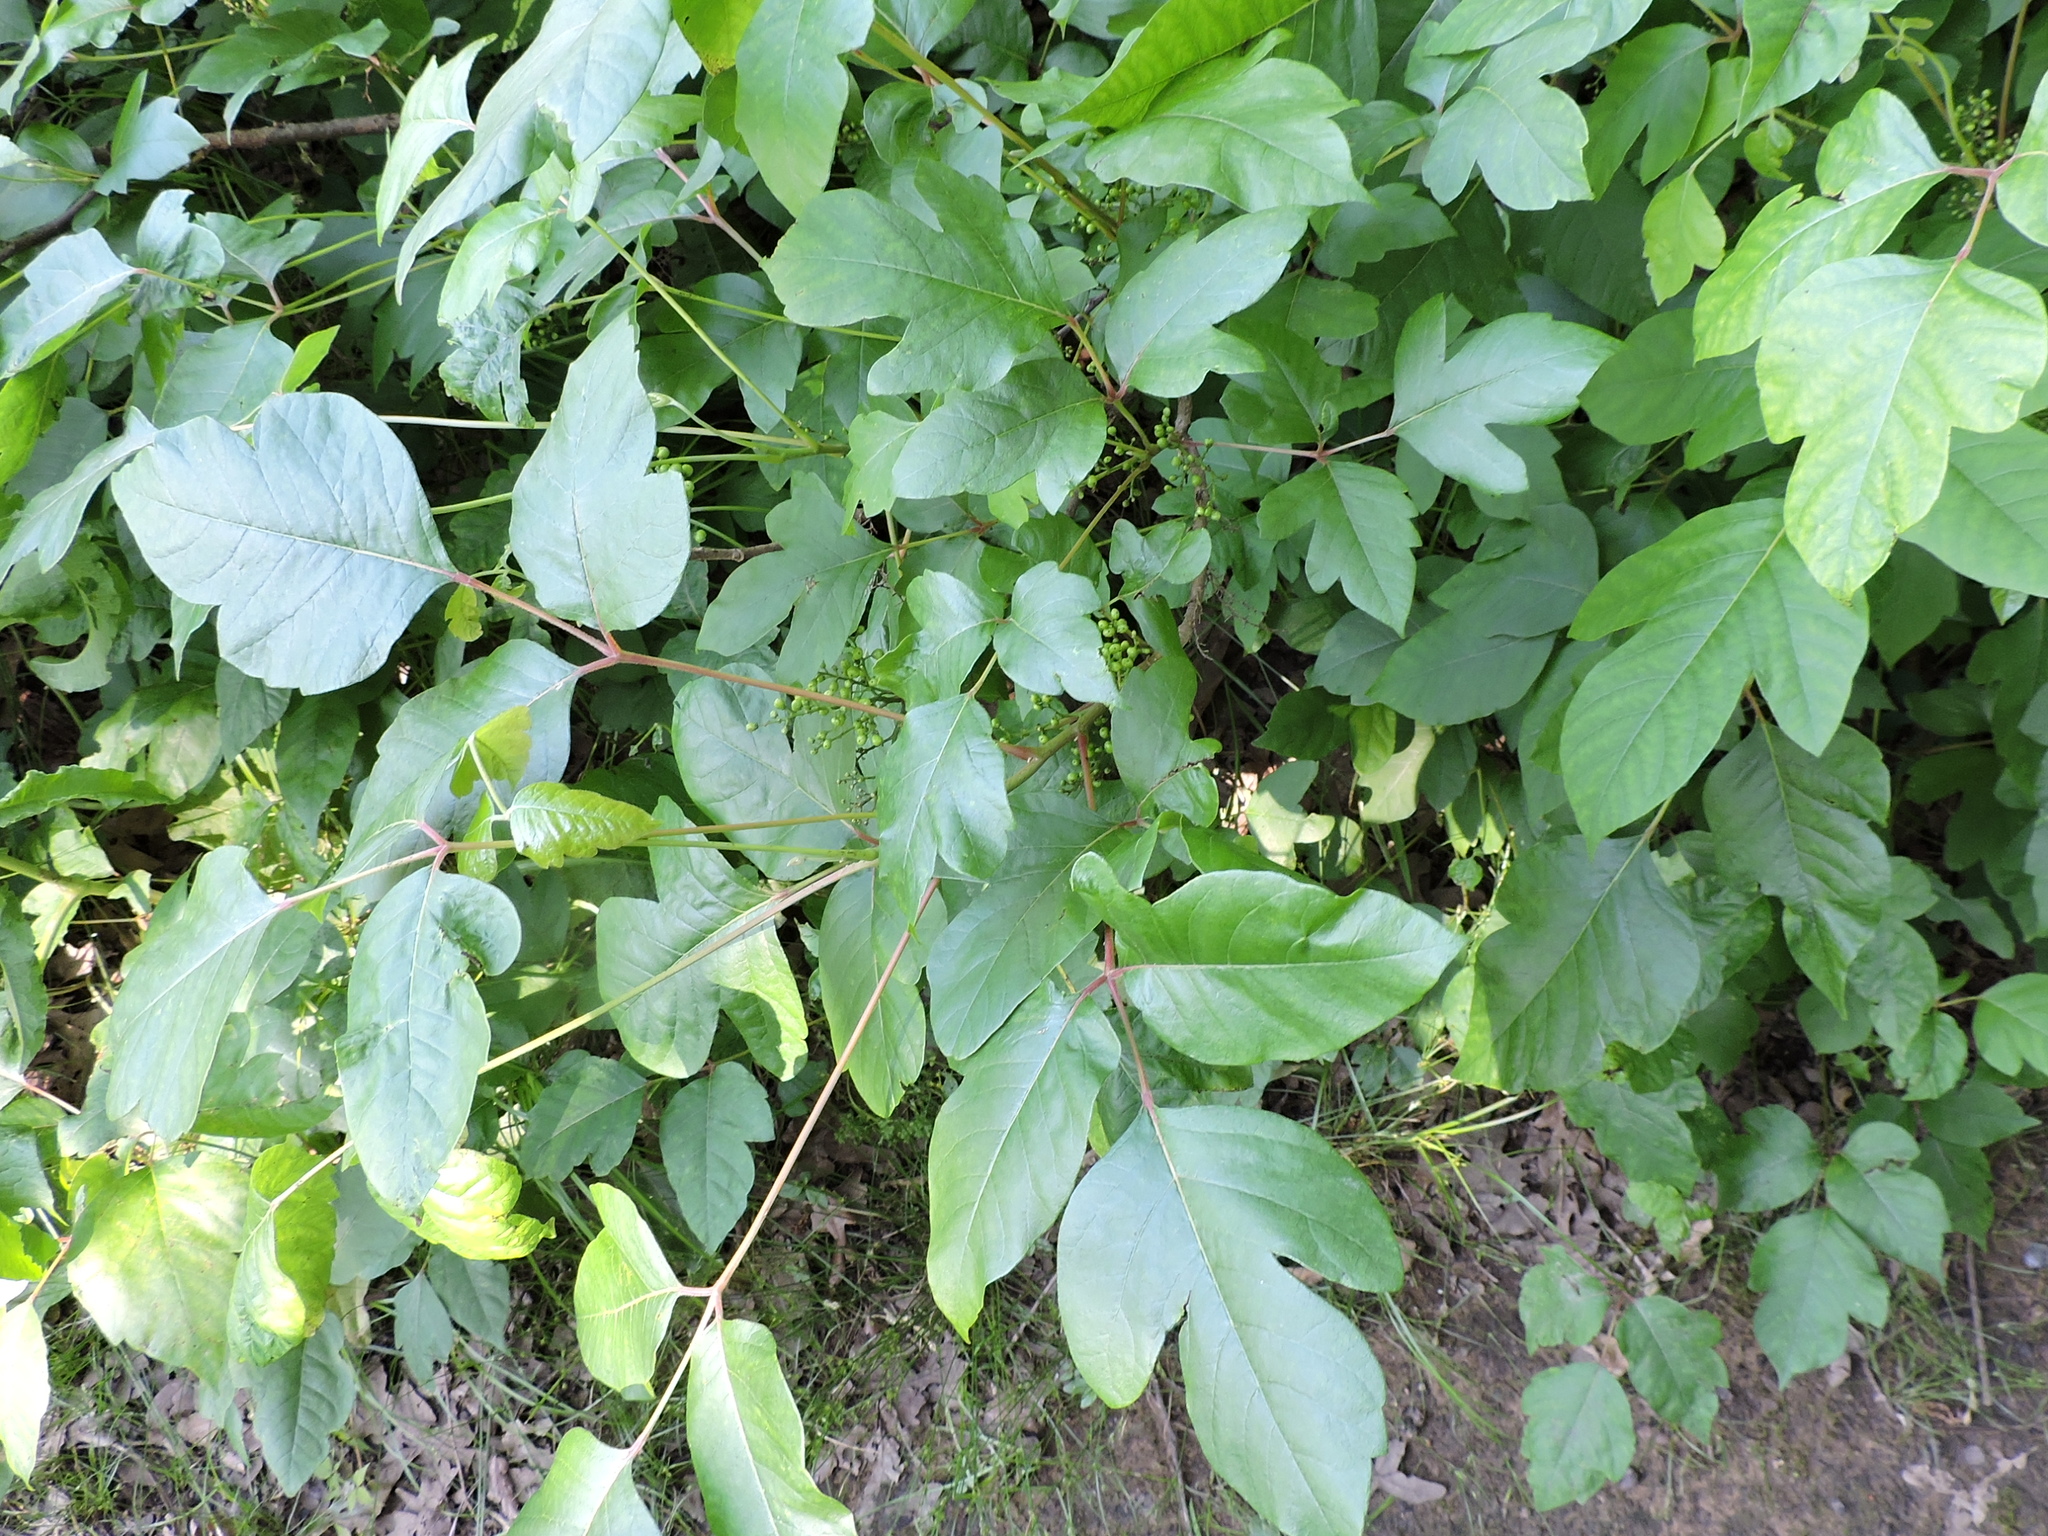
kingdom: Plantae
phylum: Tracheophyta
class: Magnoliopsida
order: Sapindales
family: Anacardiaceae
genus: Toxicodendron
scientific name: Toxicodendron radicans
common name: Poison ivy
